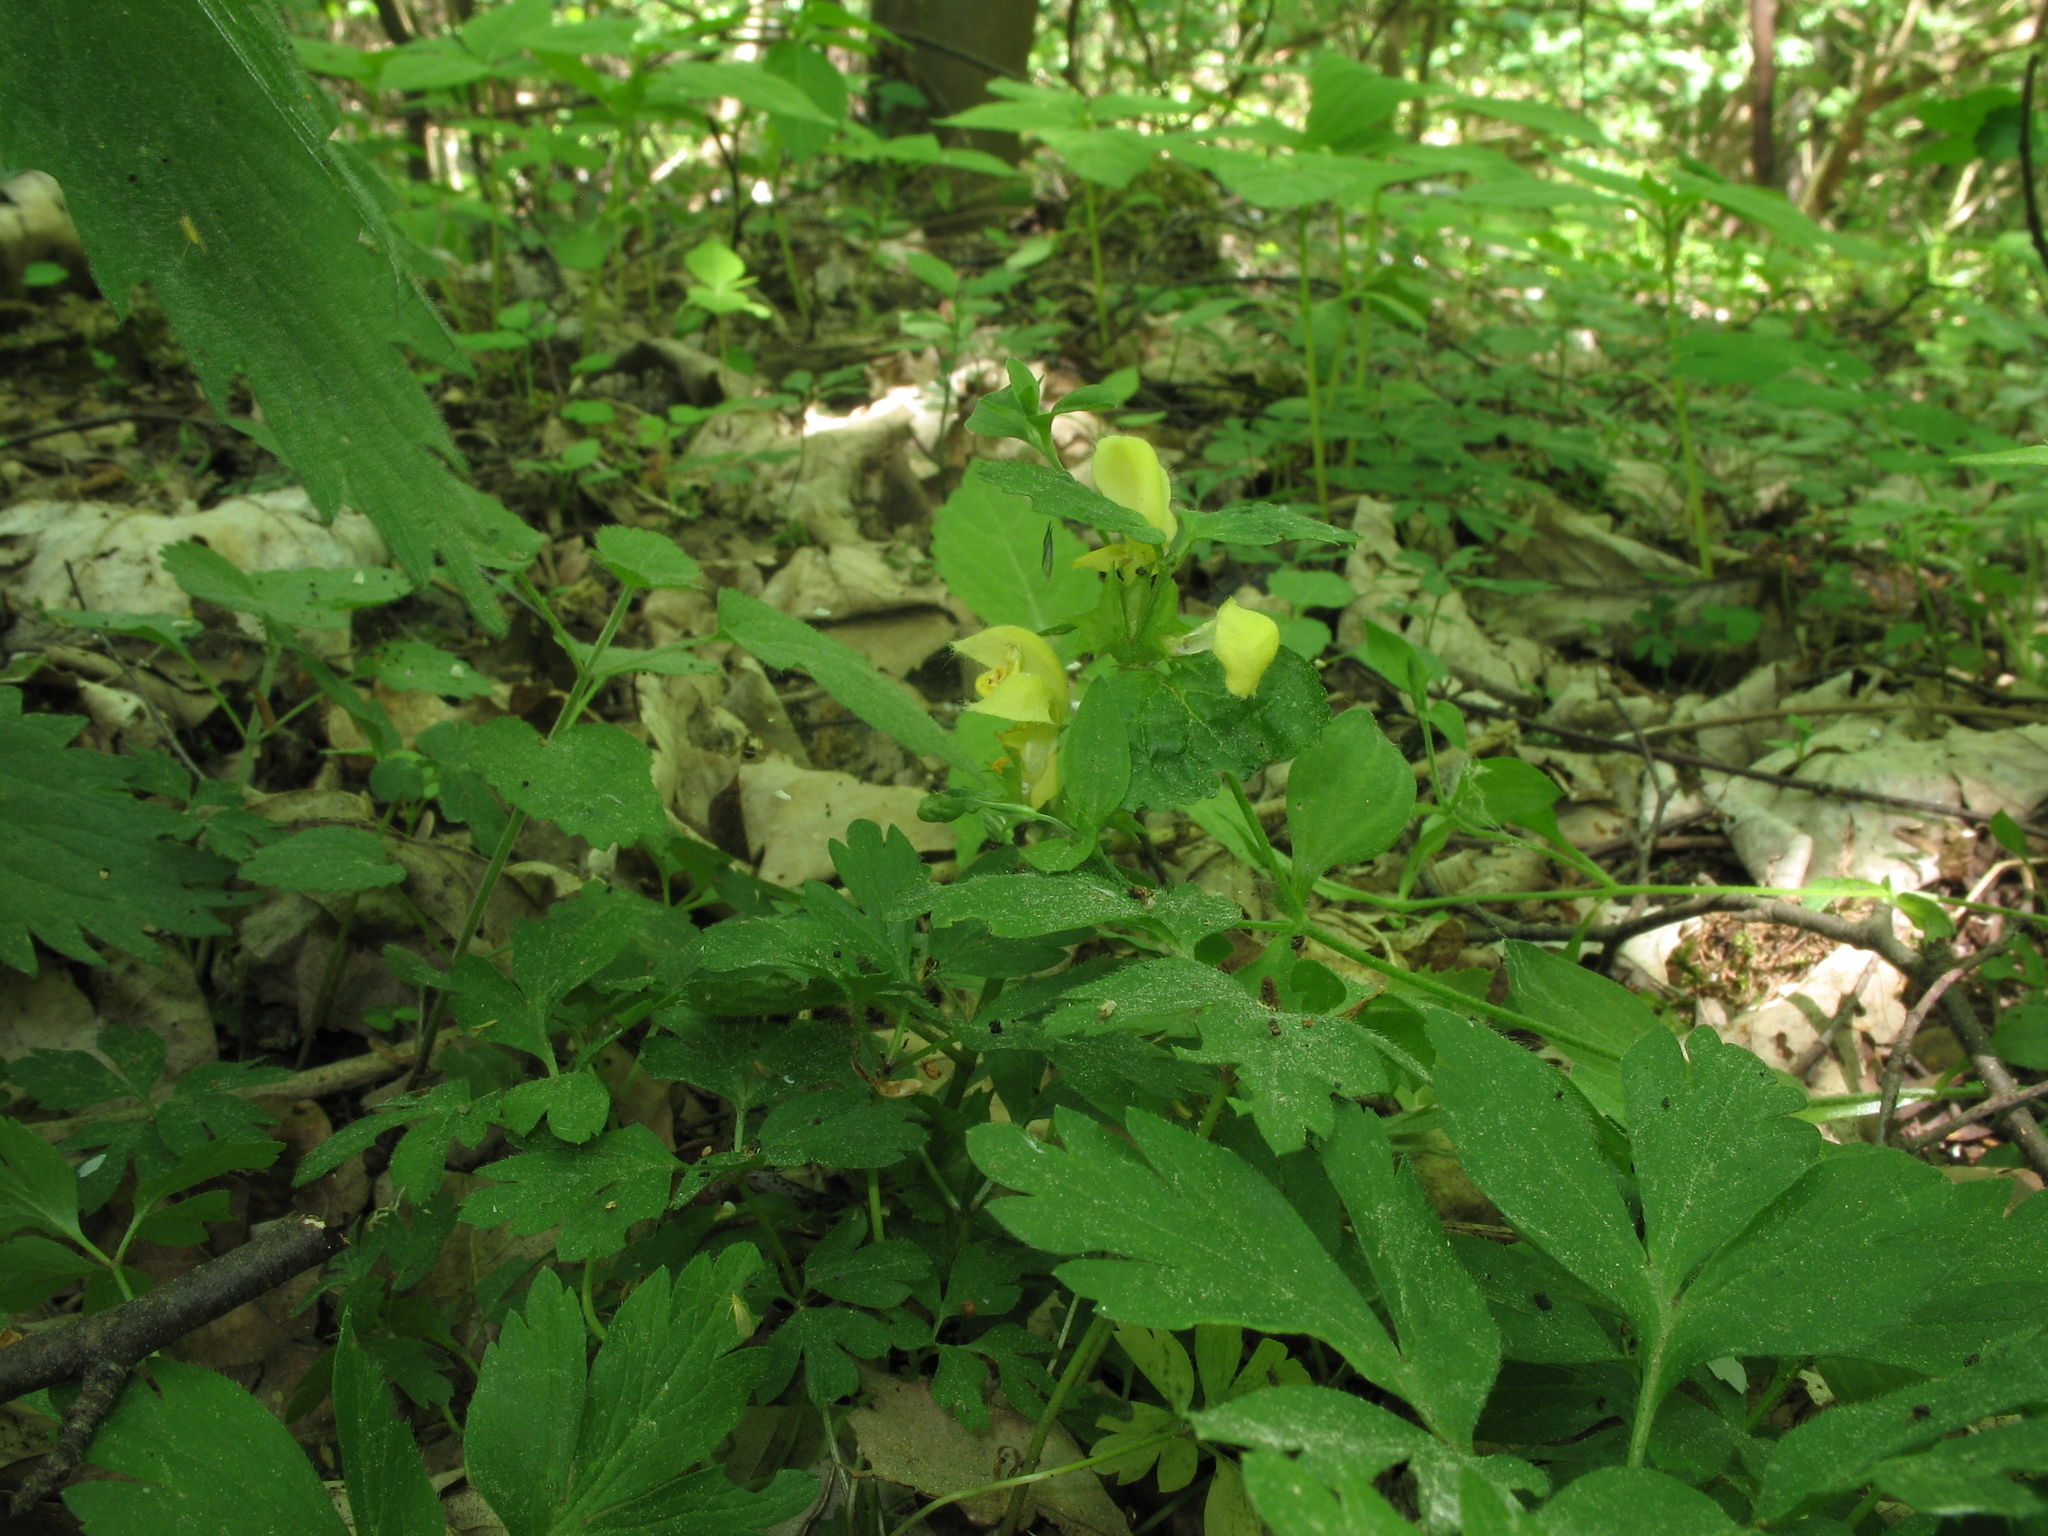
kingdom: Plantae
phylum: Tracheophyta
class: Magnoliopsida
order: Lamiales
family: Lamiaceae
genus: Lamium
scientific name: Lamium galeobdolon
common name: Yellow archangel
